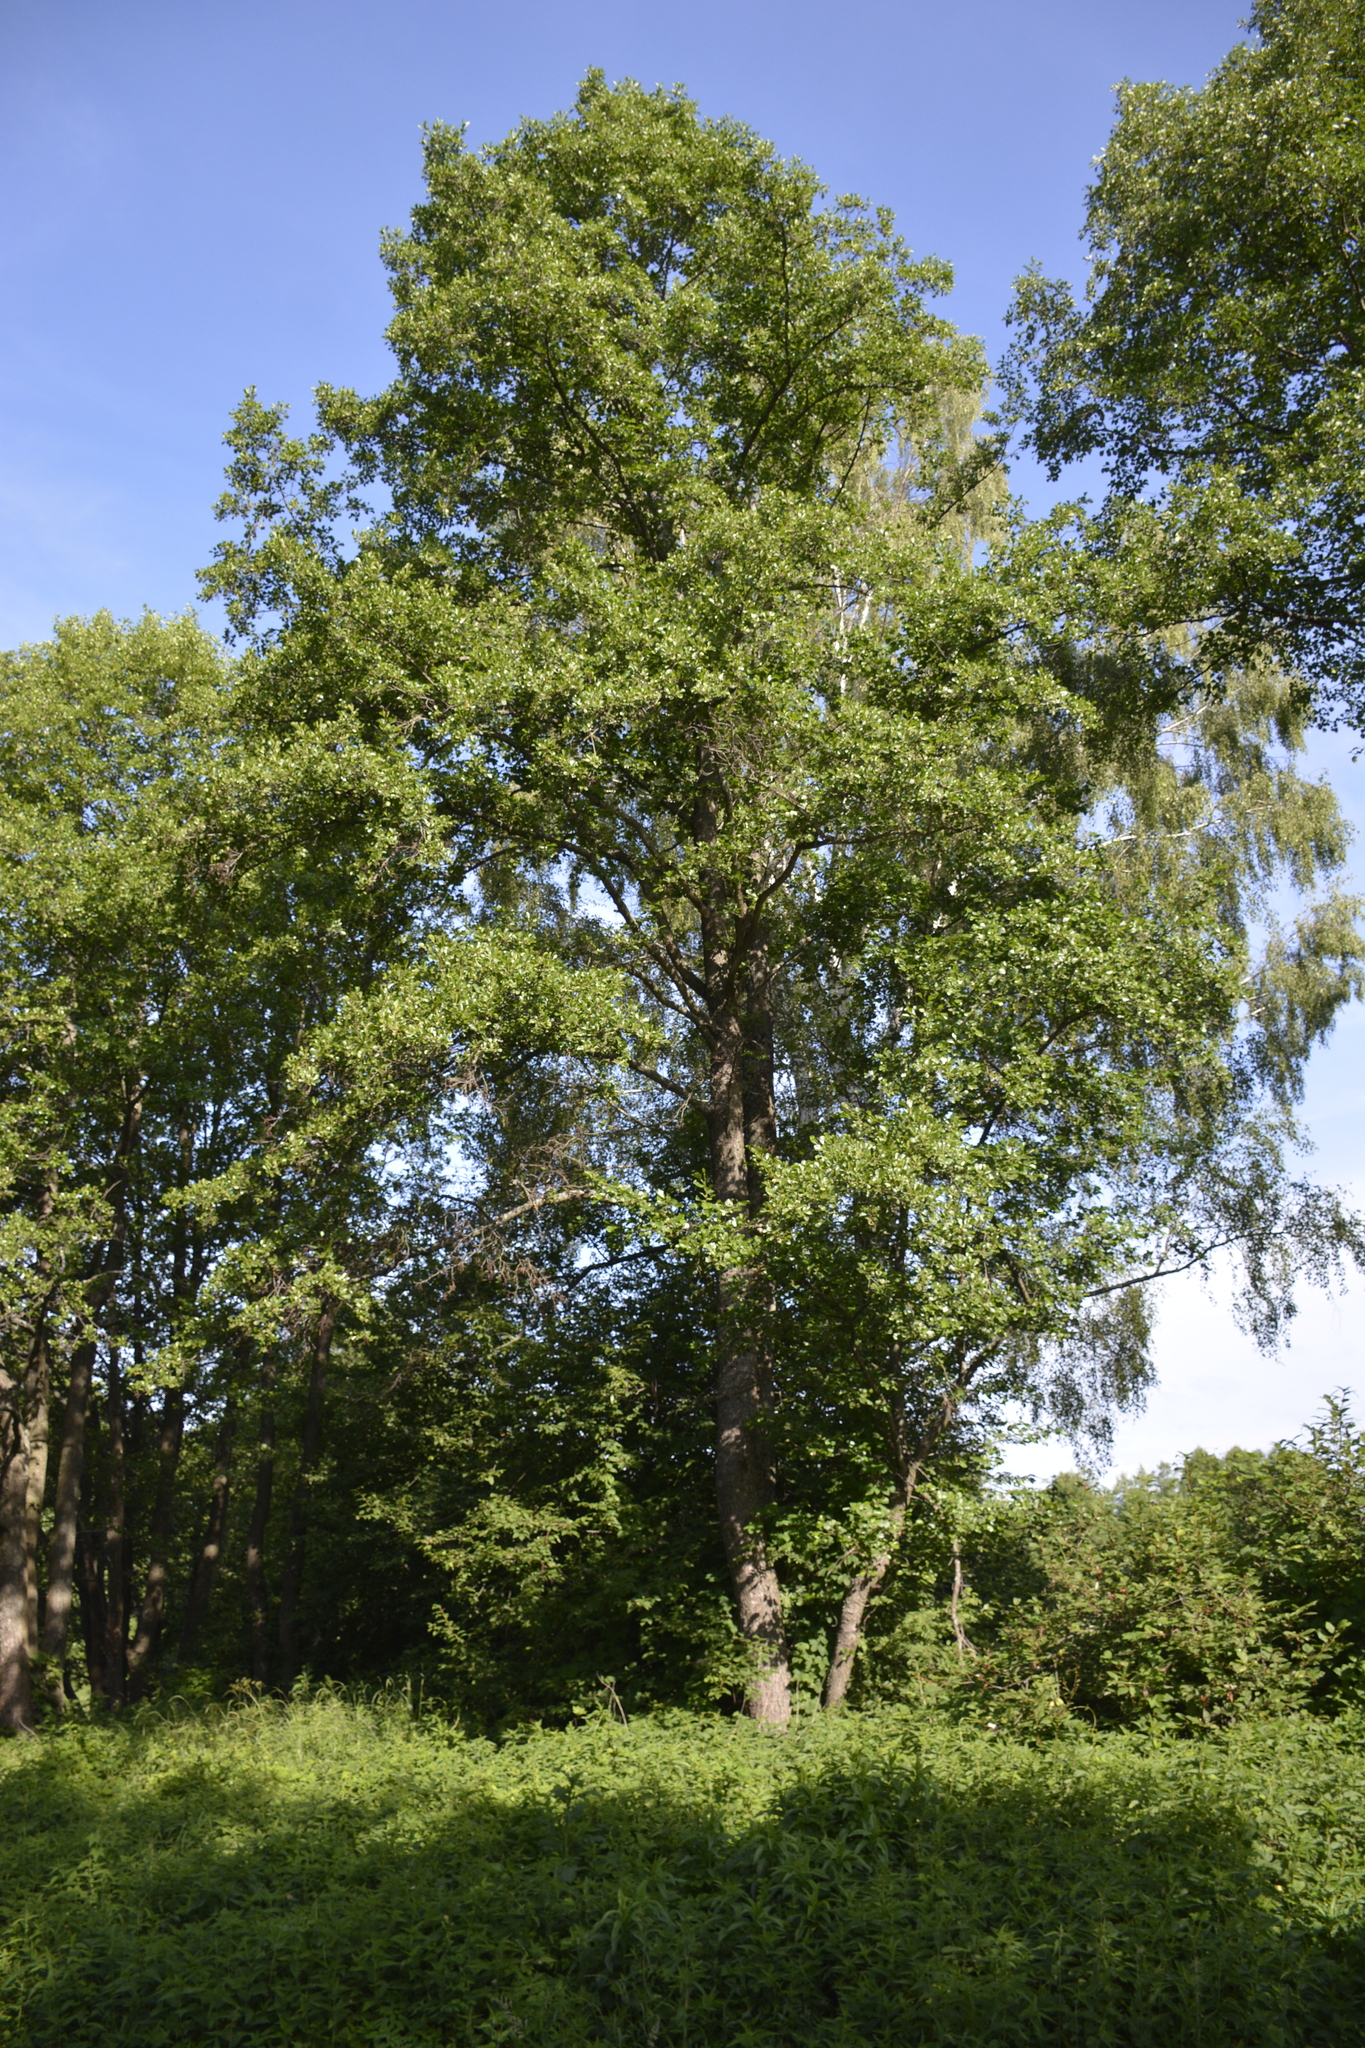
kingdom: Plantae
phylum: Tracheophyta
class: Magnoliopsida
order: Fagales
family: Betulaceae
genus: Alnus
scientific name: Alnus glutinosa
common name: Black alder
